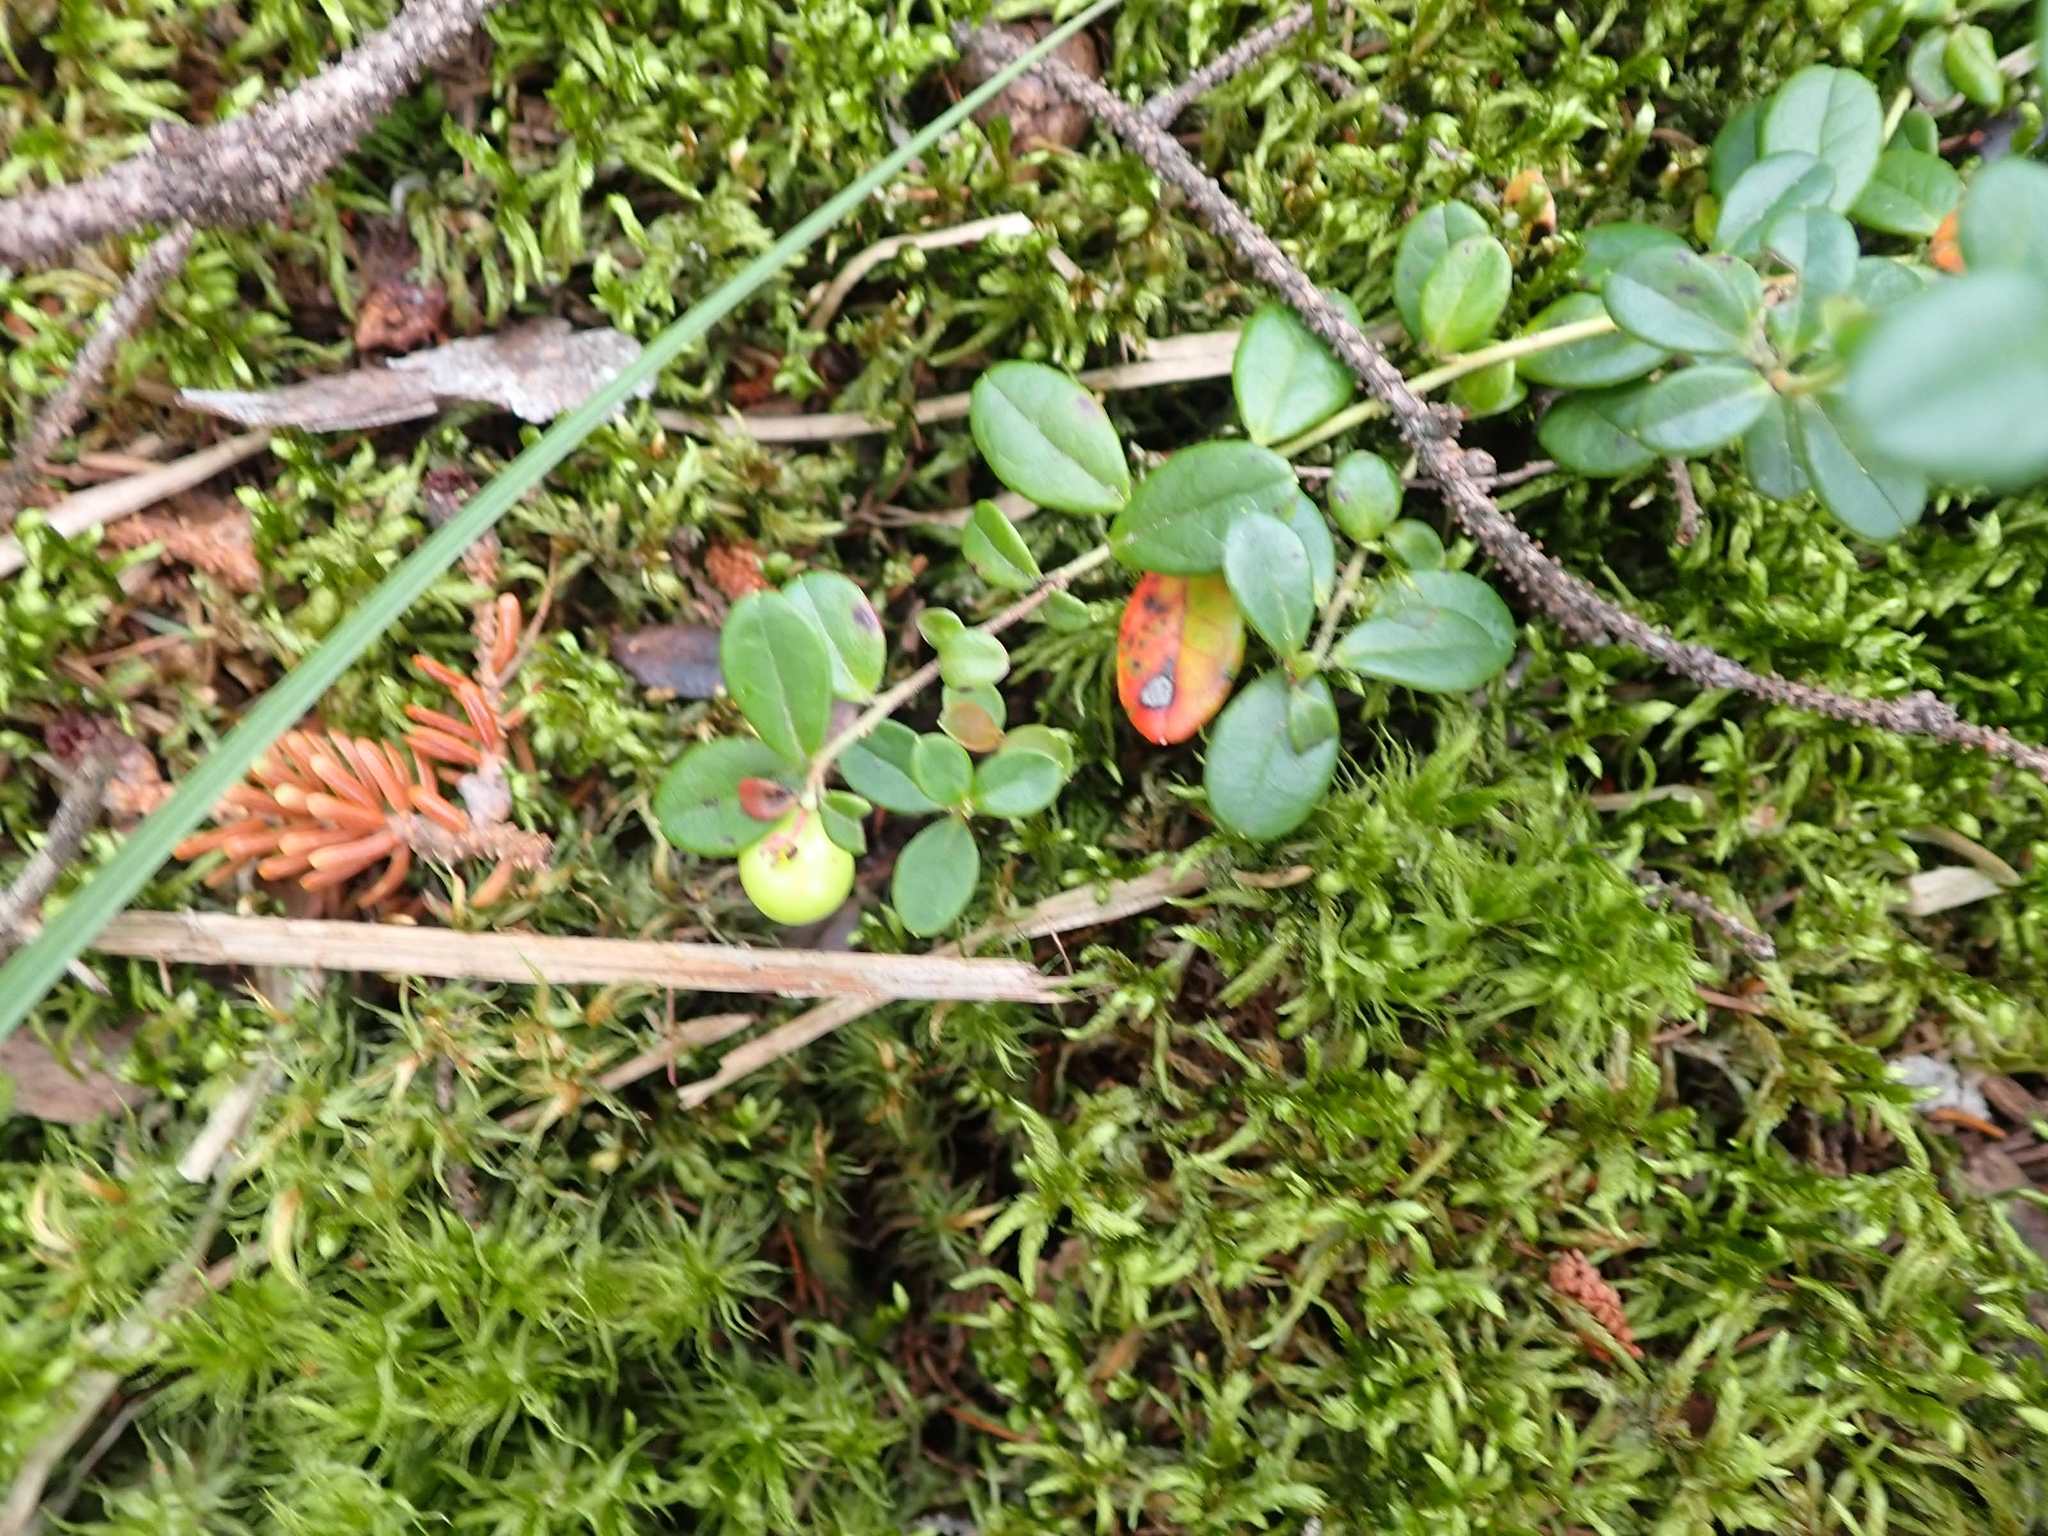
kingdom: Plantae
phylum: Tracheophyta
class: Magnoliopsida
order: Ericales
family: Ericaceae
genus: Vaccinium
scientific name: Vaccinium vitis-idaea
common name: Cowberry
